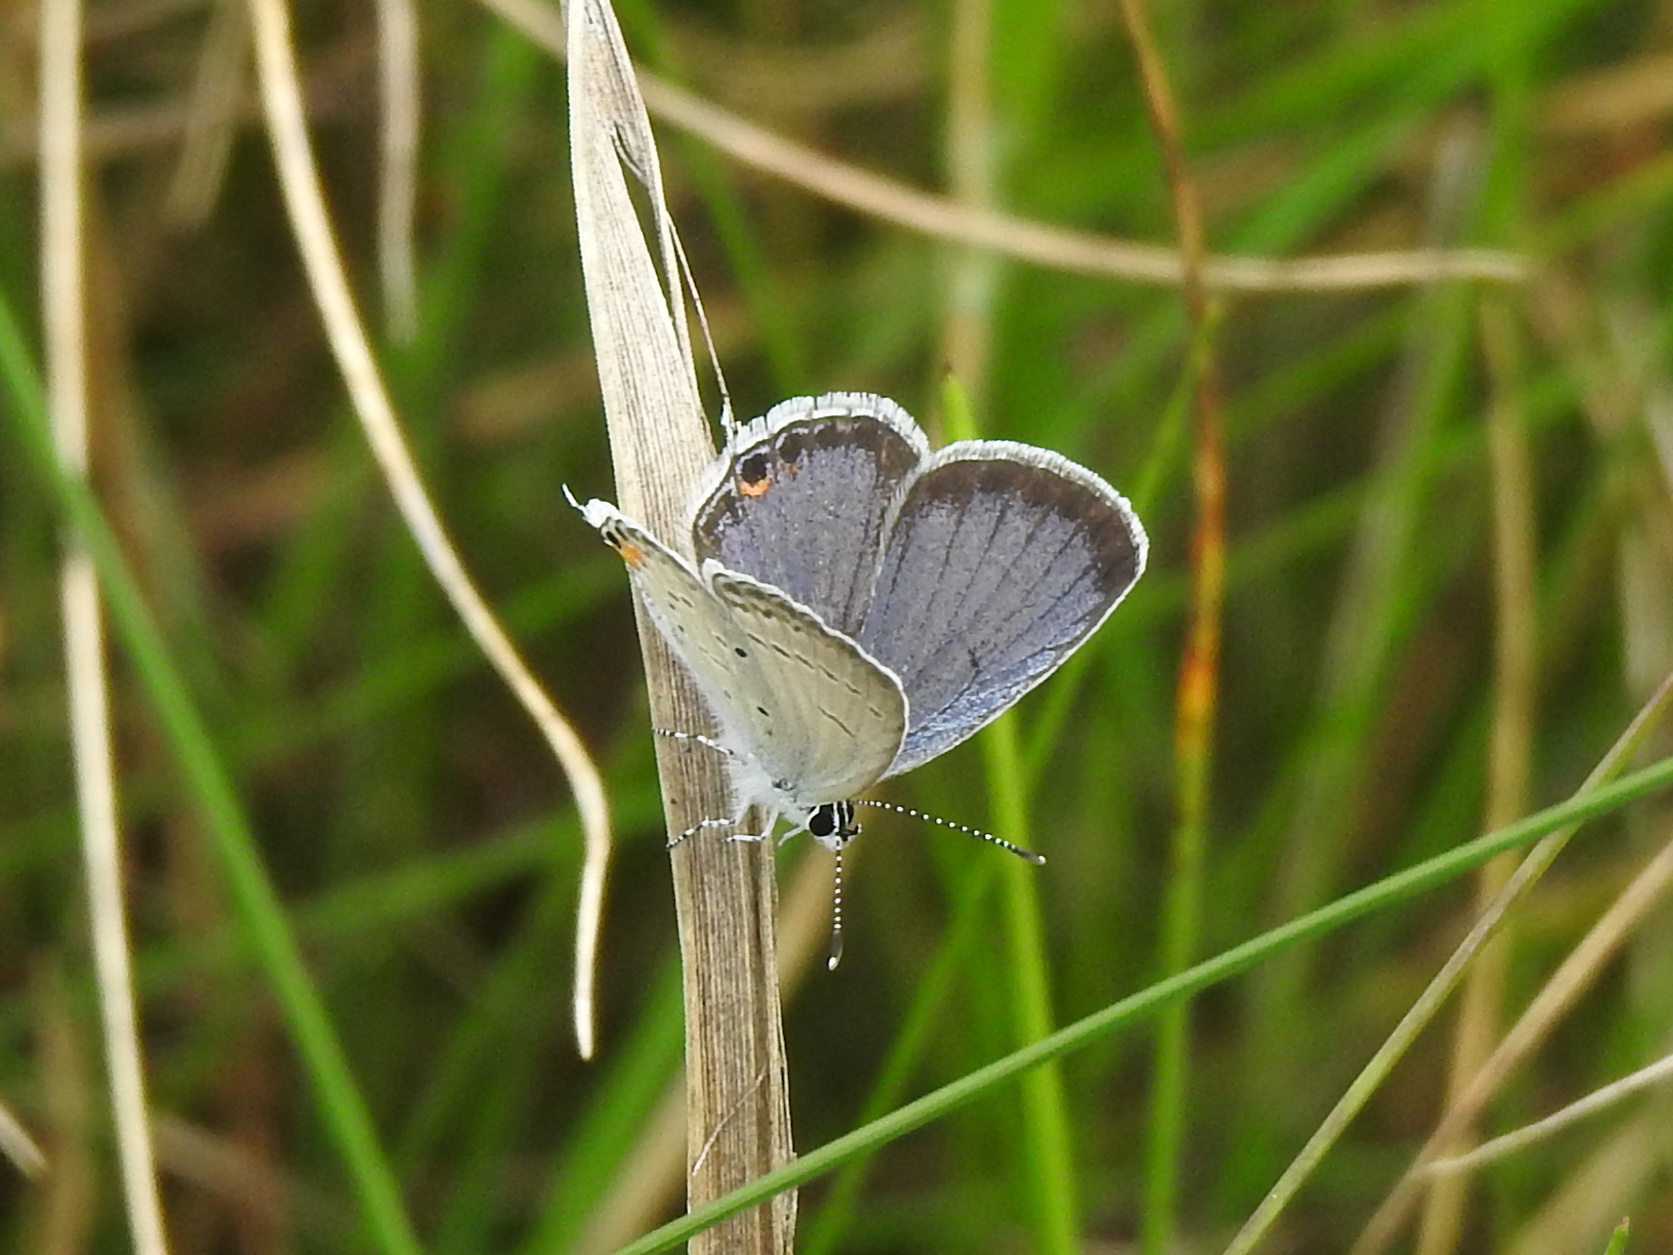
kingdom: Animalia
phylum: Arthropoda
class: Insecta
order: Lepidoptera
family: Lycaenidae
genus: Elkalyce
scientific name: Elkalyce comyntas
